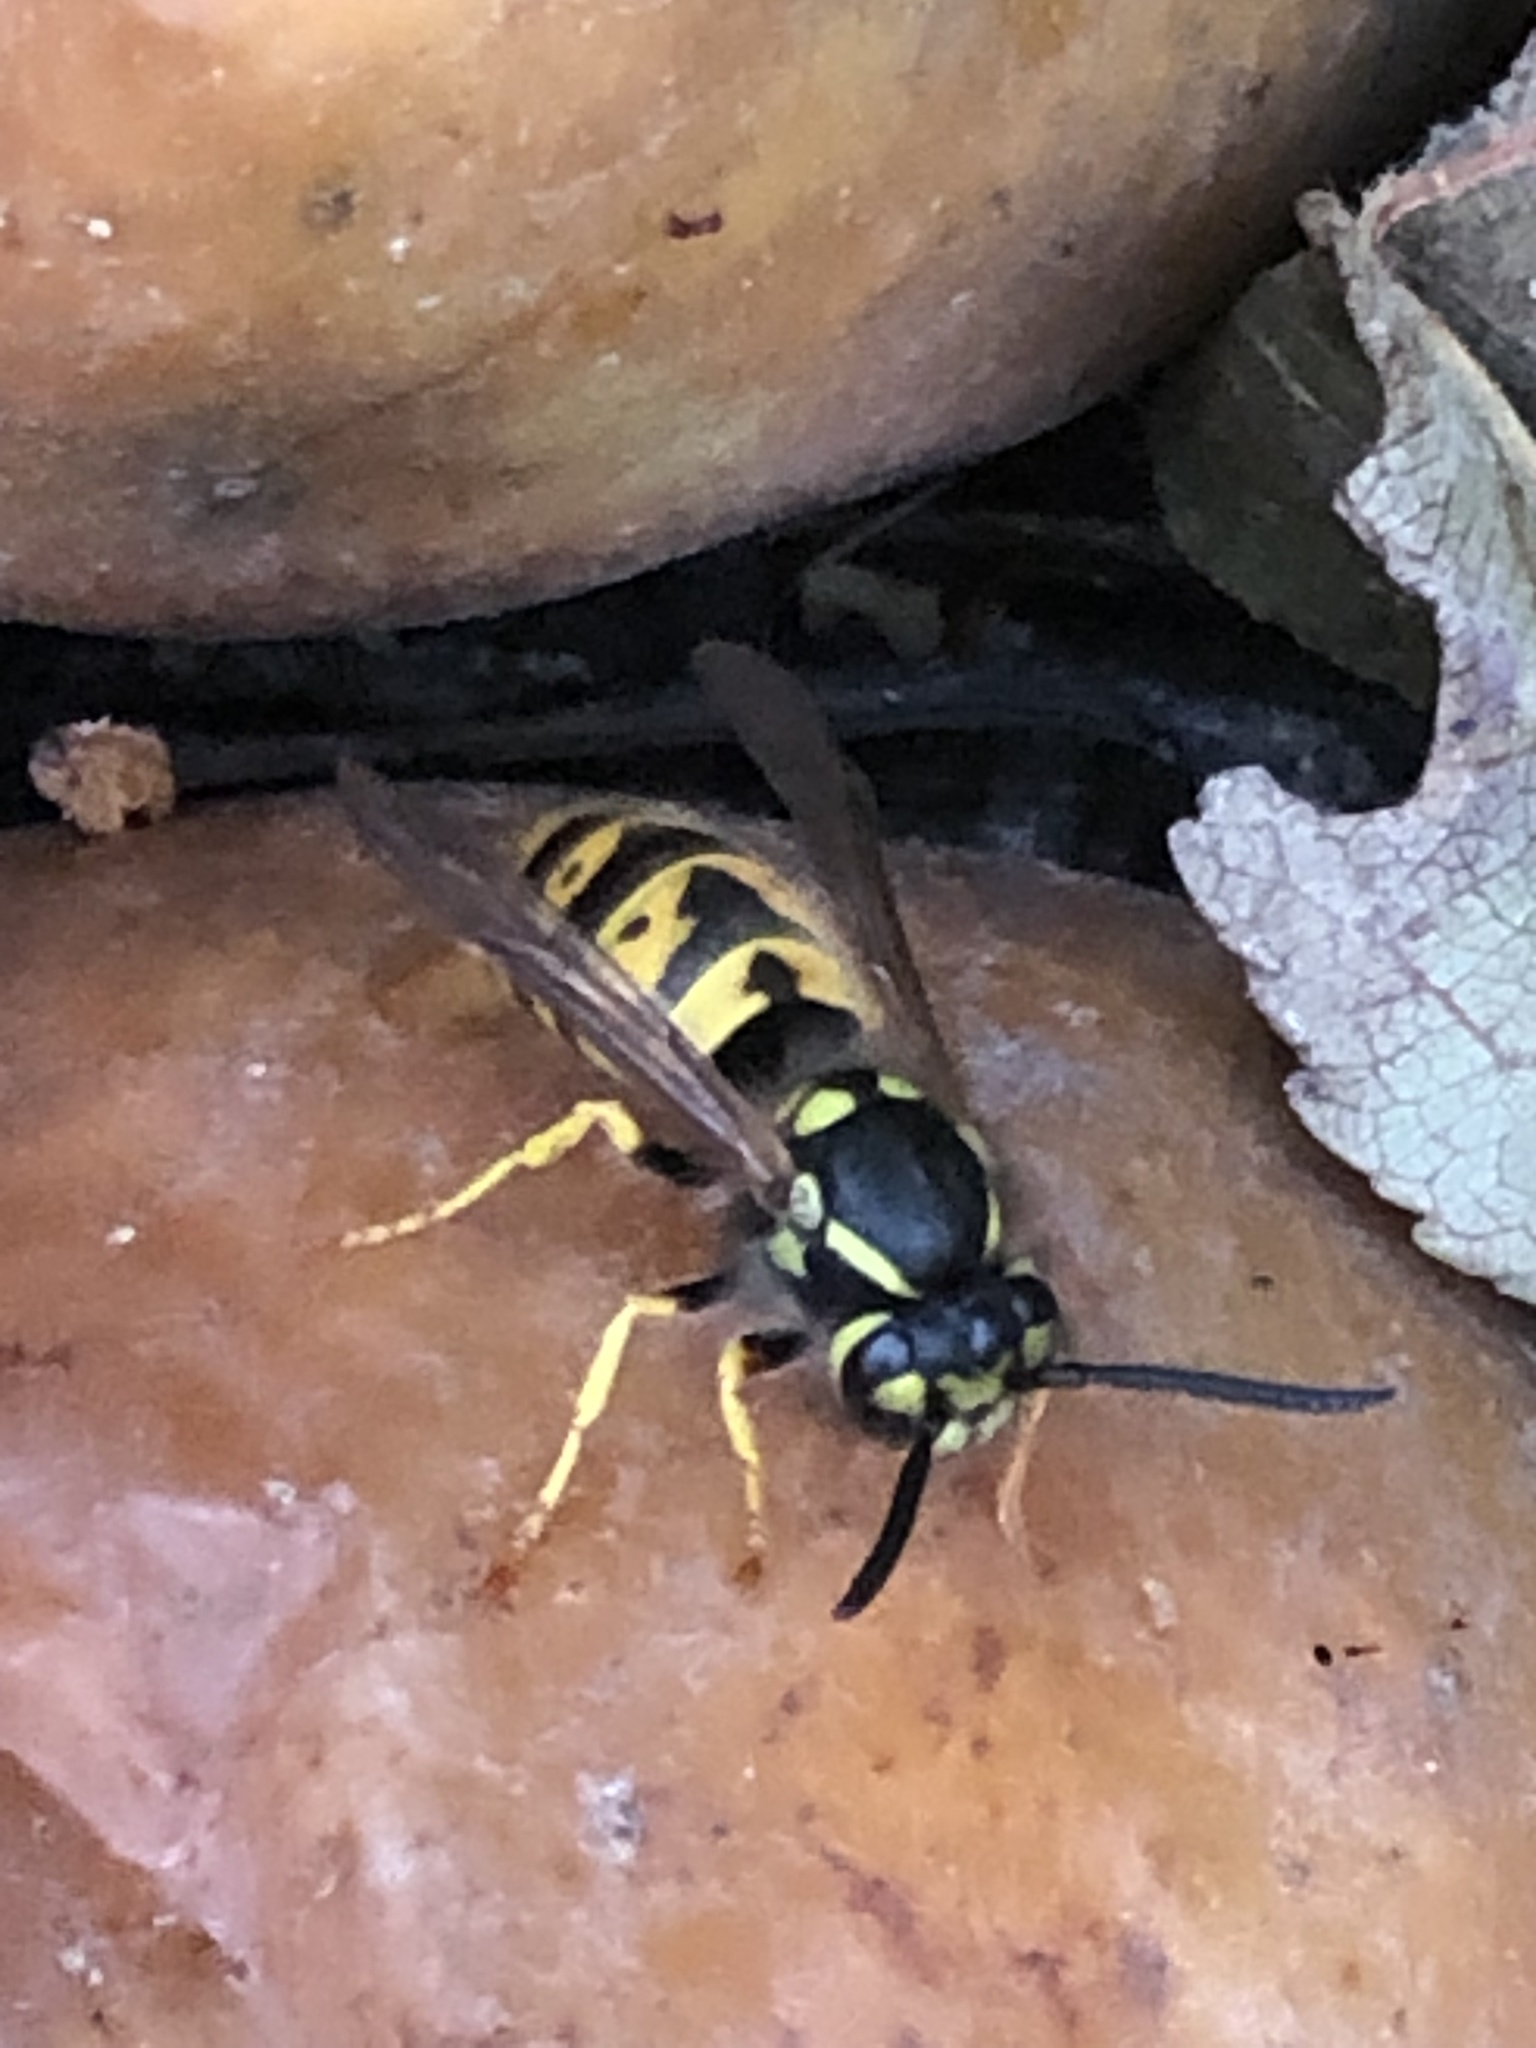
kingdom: Animalia
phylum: Arthropoda
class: Insecta
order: Hymenoptera
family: Vespidae
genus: Vespula
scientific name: Vespula germanica
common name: German wasp
